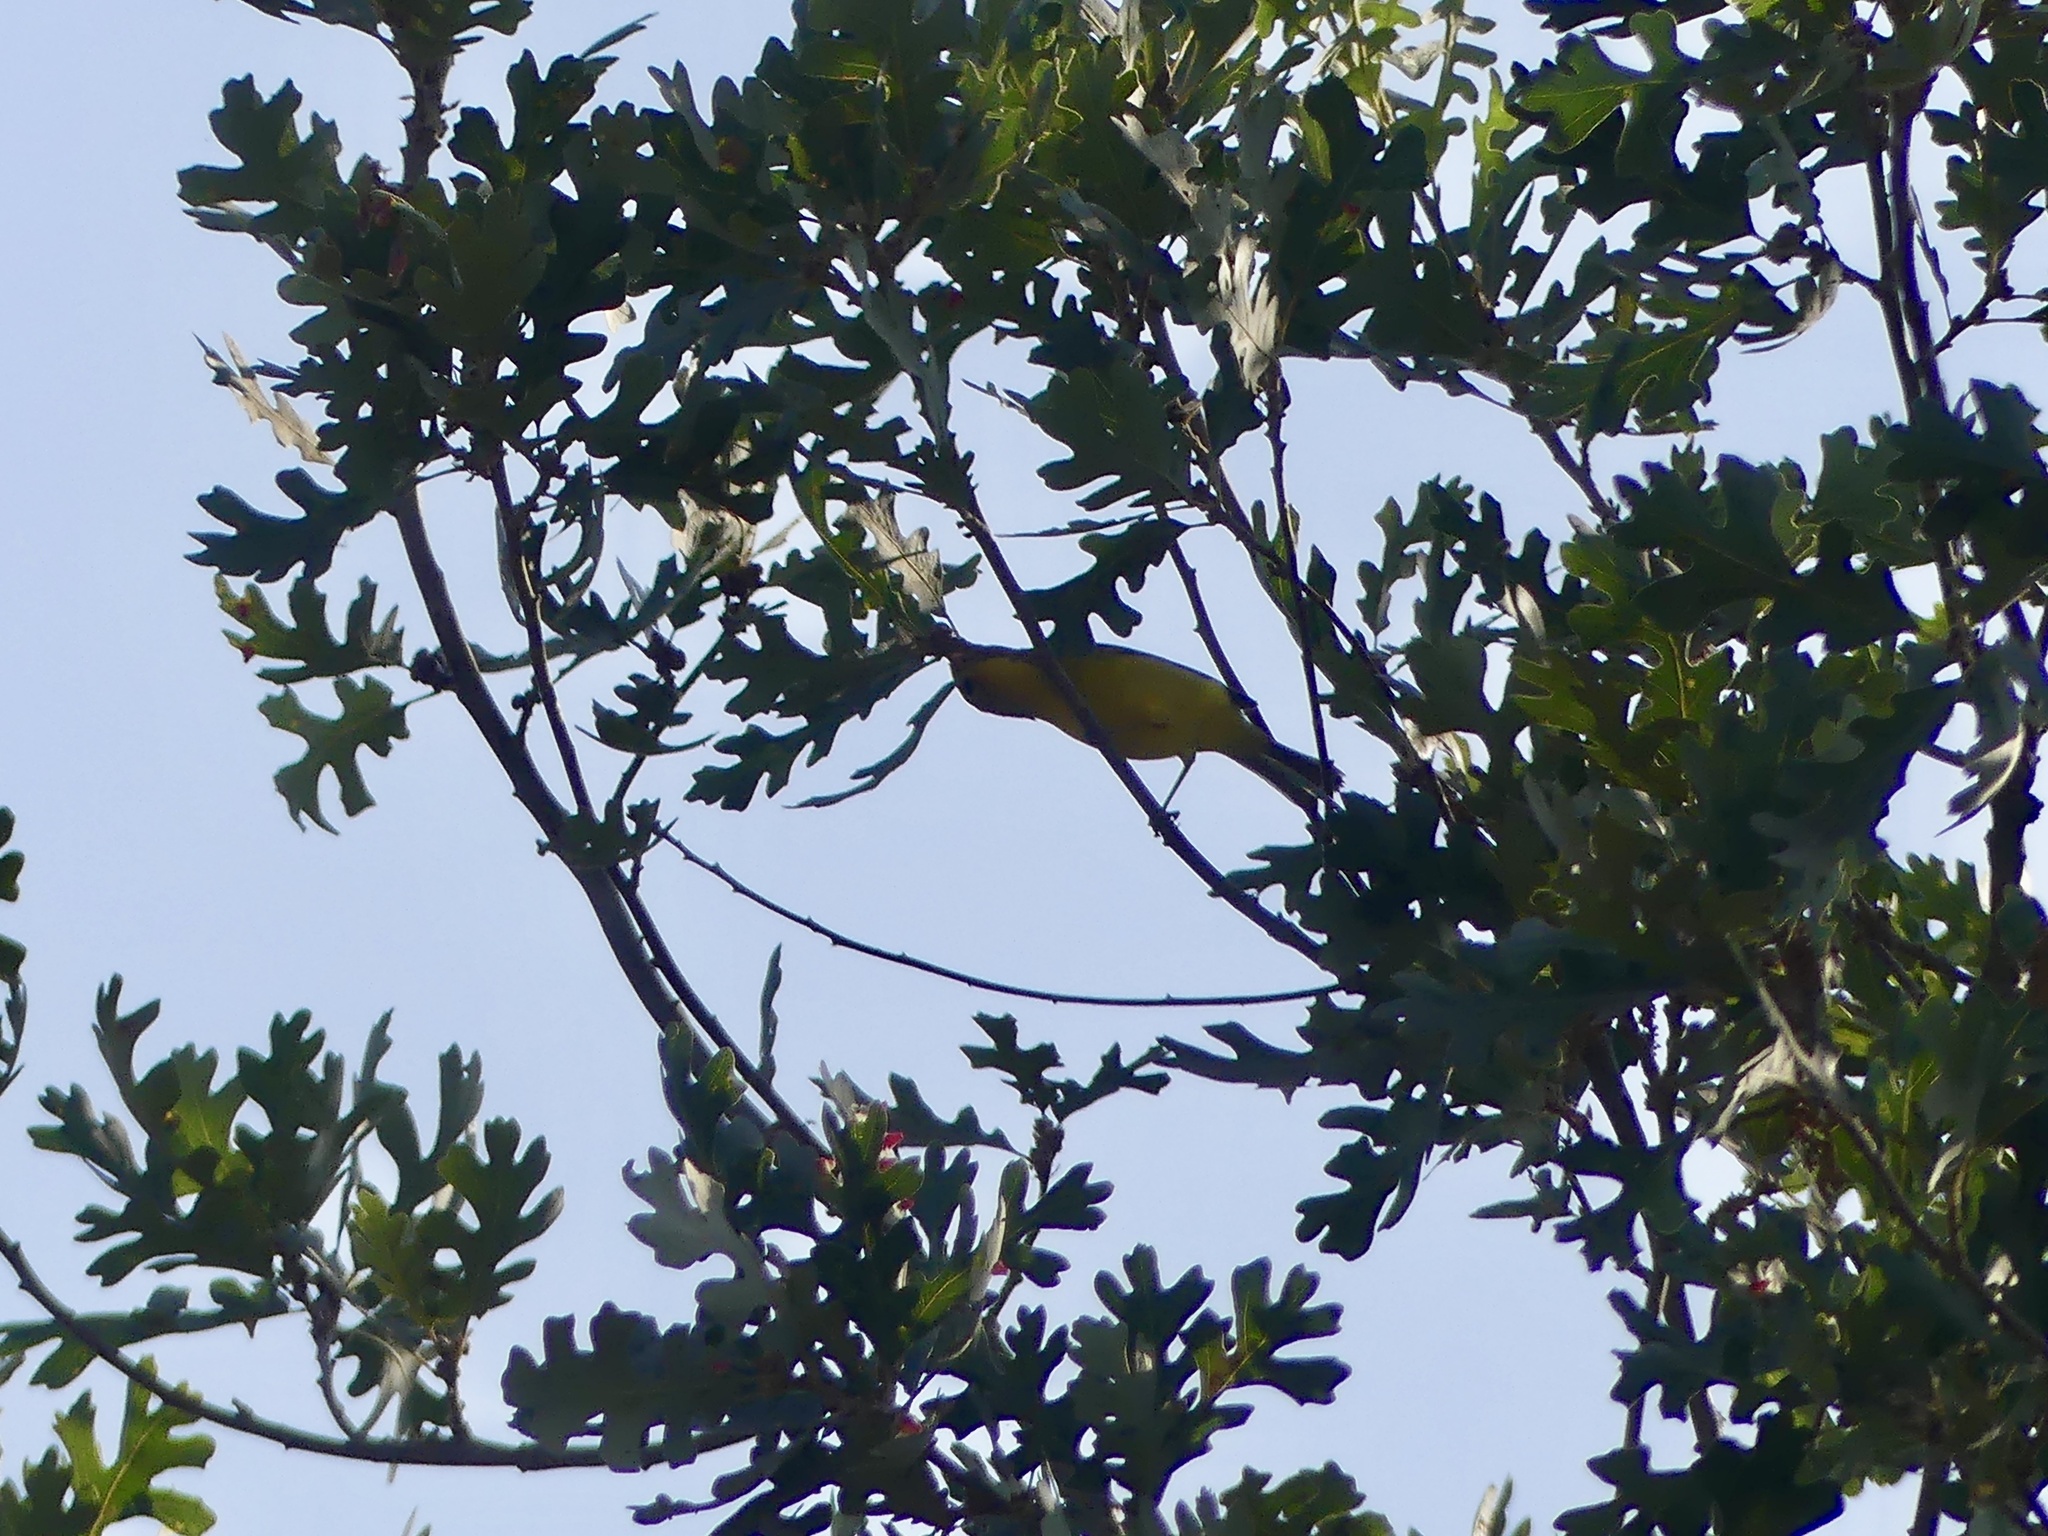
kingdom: Animalia
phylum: Chordata
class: Aves
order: Passeriformes
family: Parulidae
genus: Cardellina
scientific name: Cardellina pusilla
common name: Wilson's warbler
